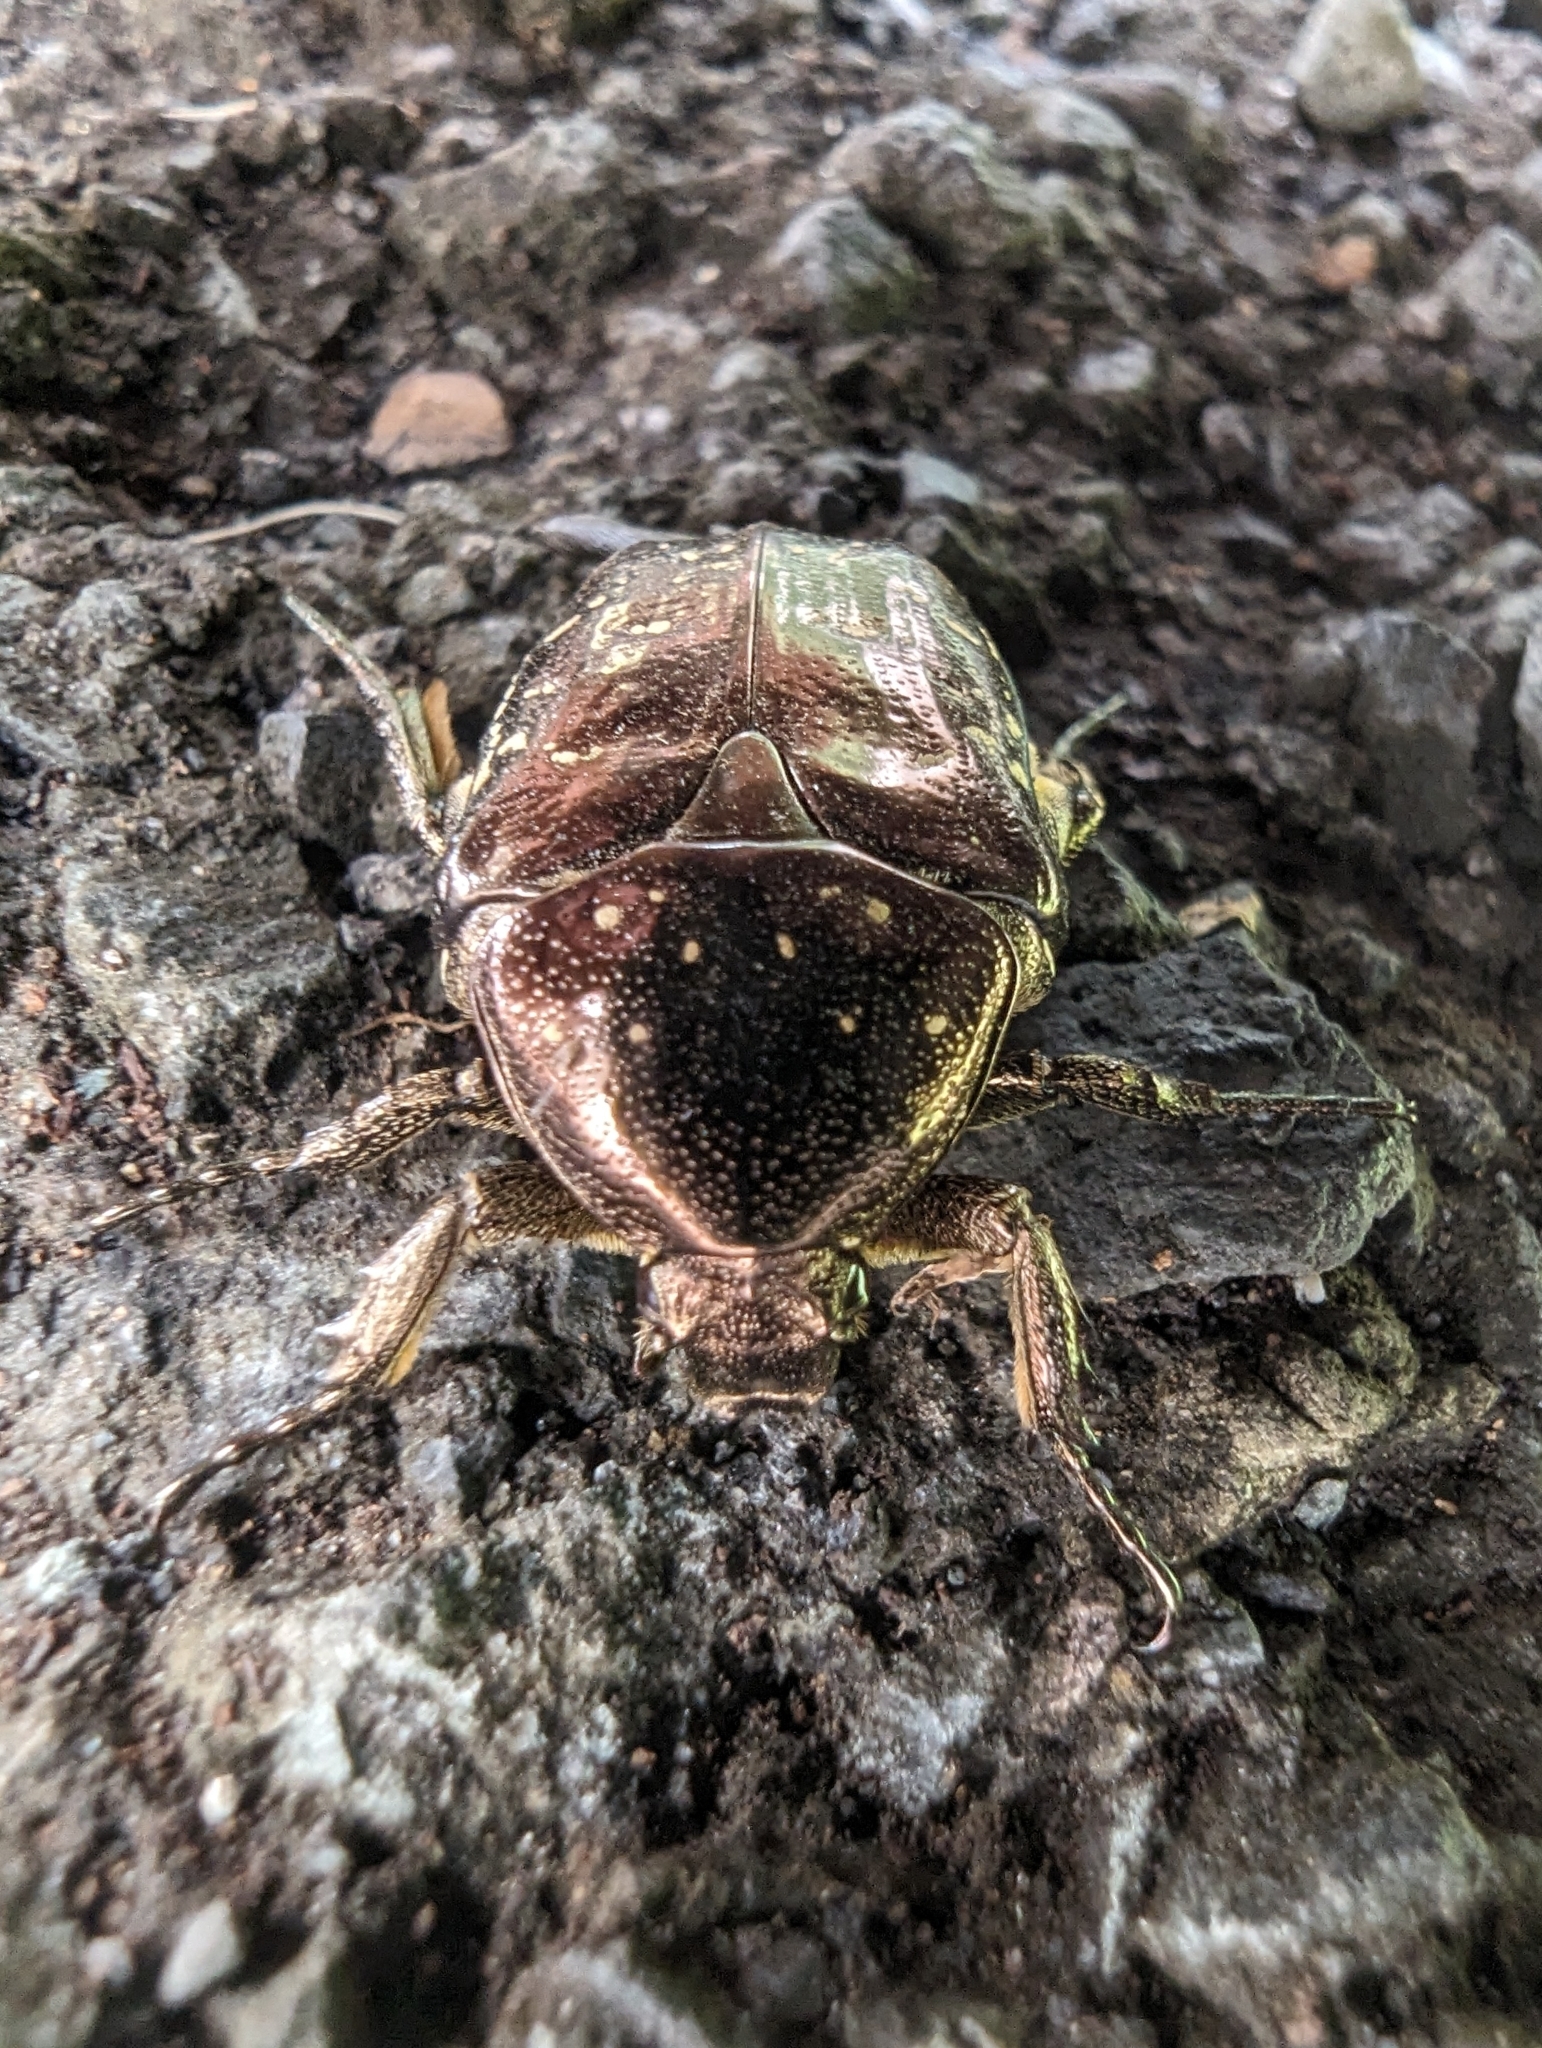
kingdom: Animalia
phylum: Arthropoda
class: Insecta
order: Coleoptera
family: Scarabaeidae
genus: Protaetia
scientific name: Protaetia orientalis
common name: Oriental flower beetle
